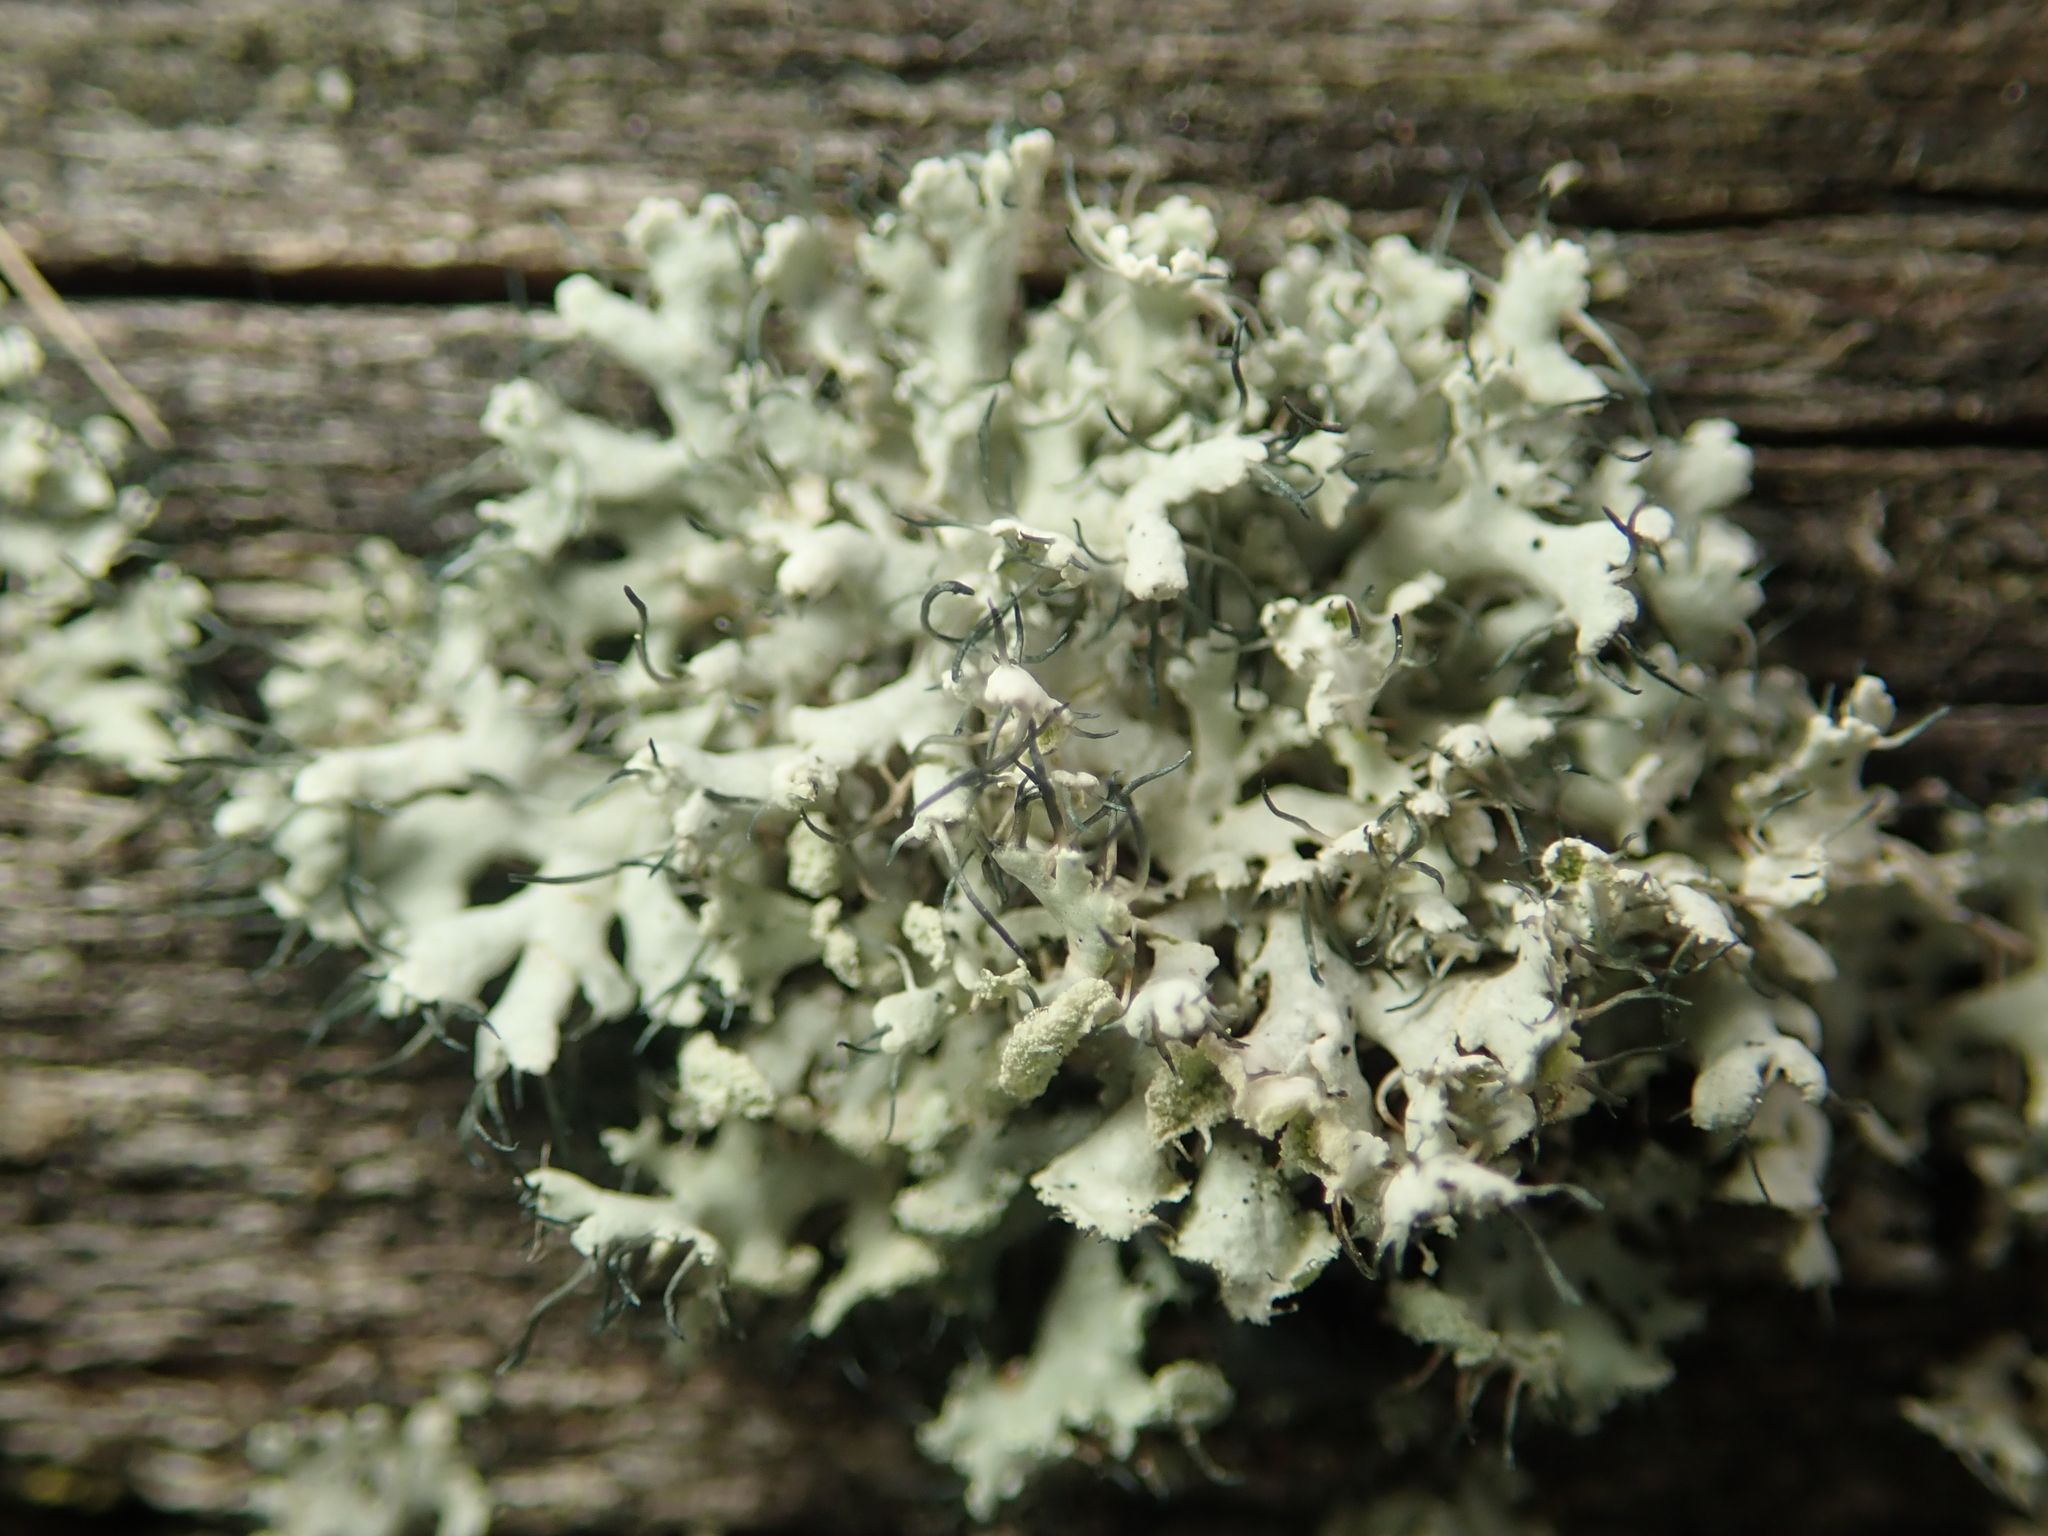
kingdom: Fungi
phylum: Ascomycota
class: Lecanoromycetes
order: Caliciales
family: Physciaceae
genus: Physcia
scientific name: Physcia tenella
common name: Fringed rosette lichen
